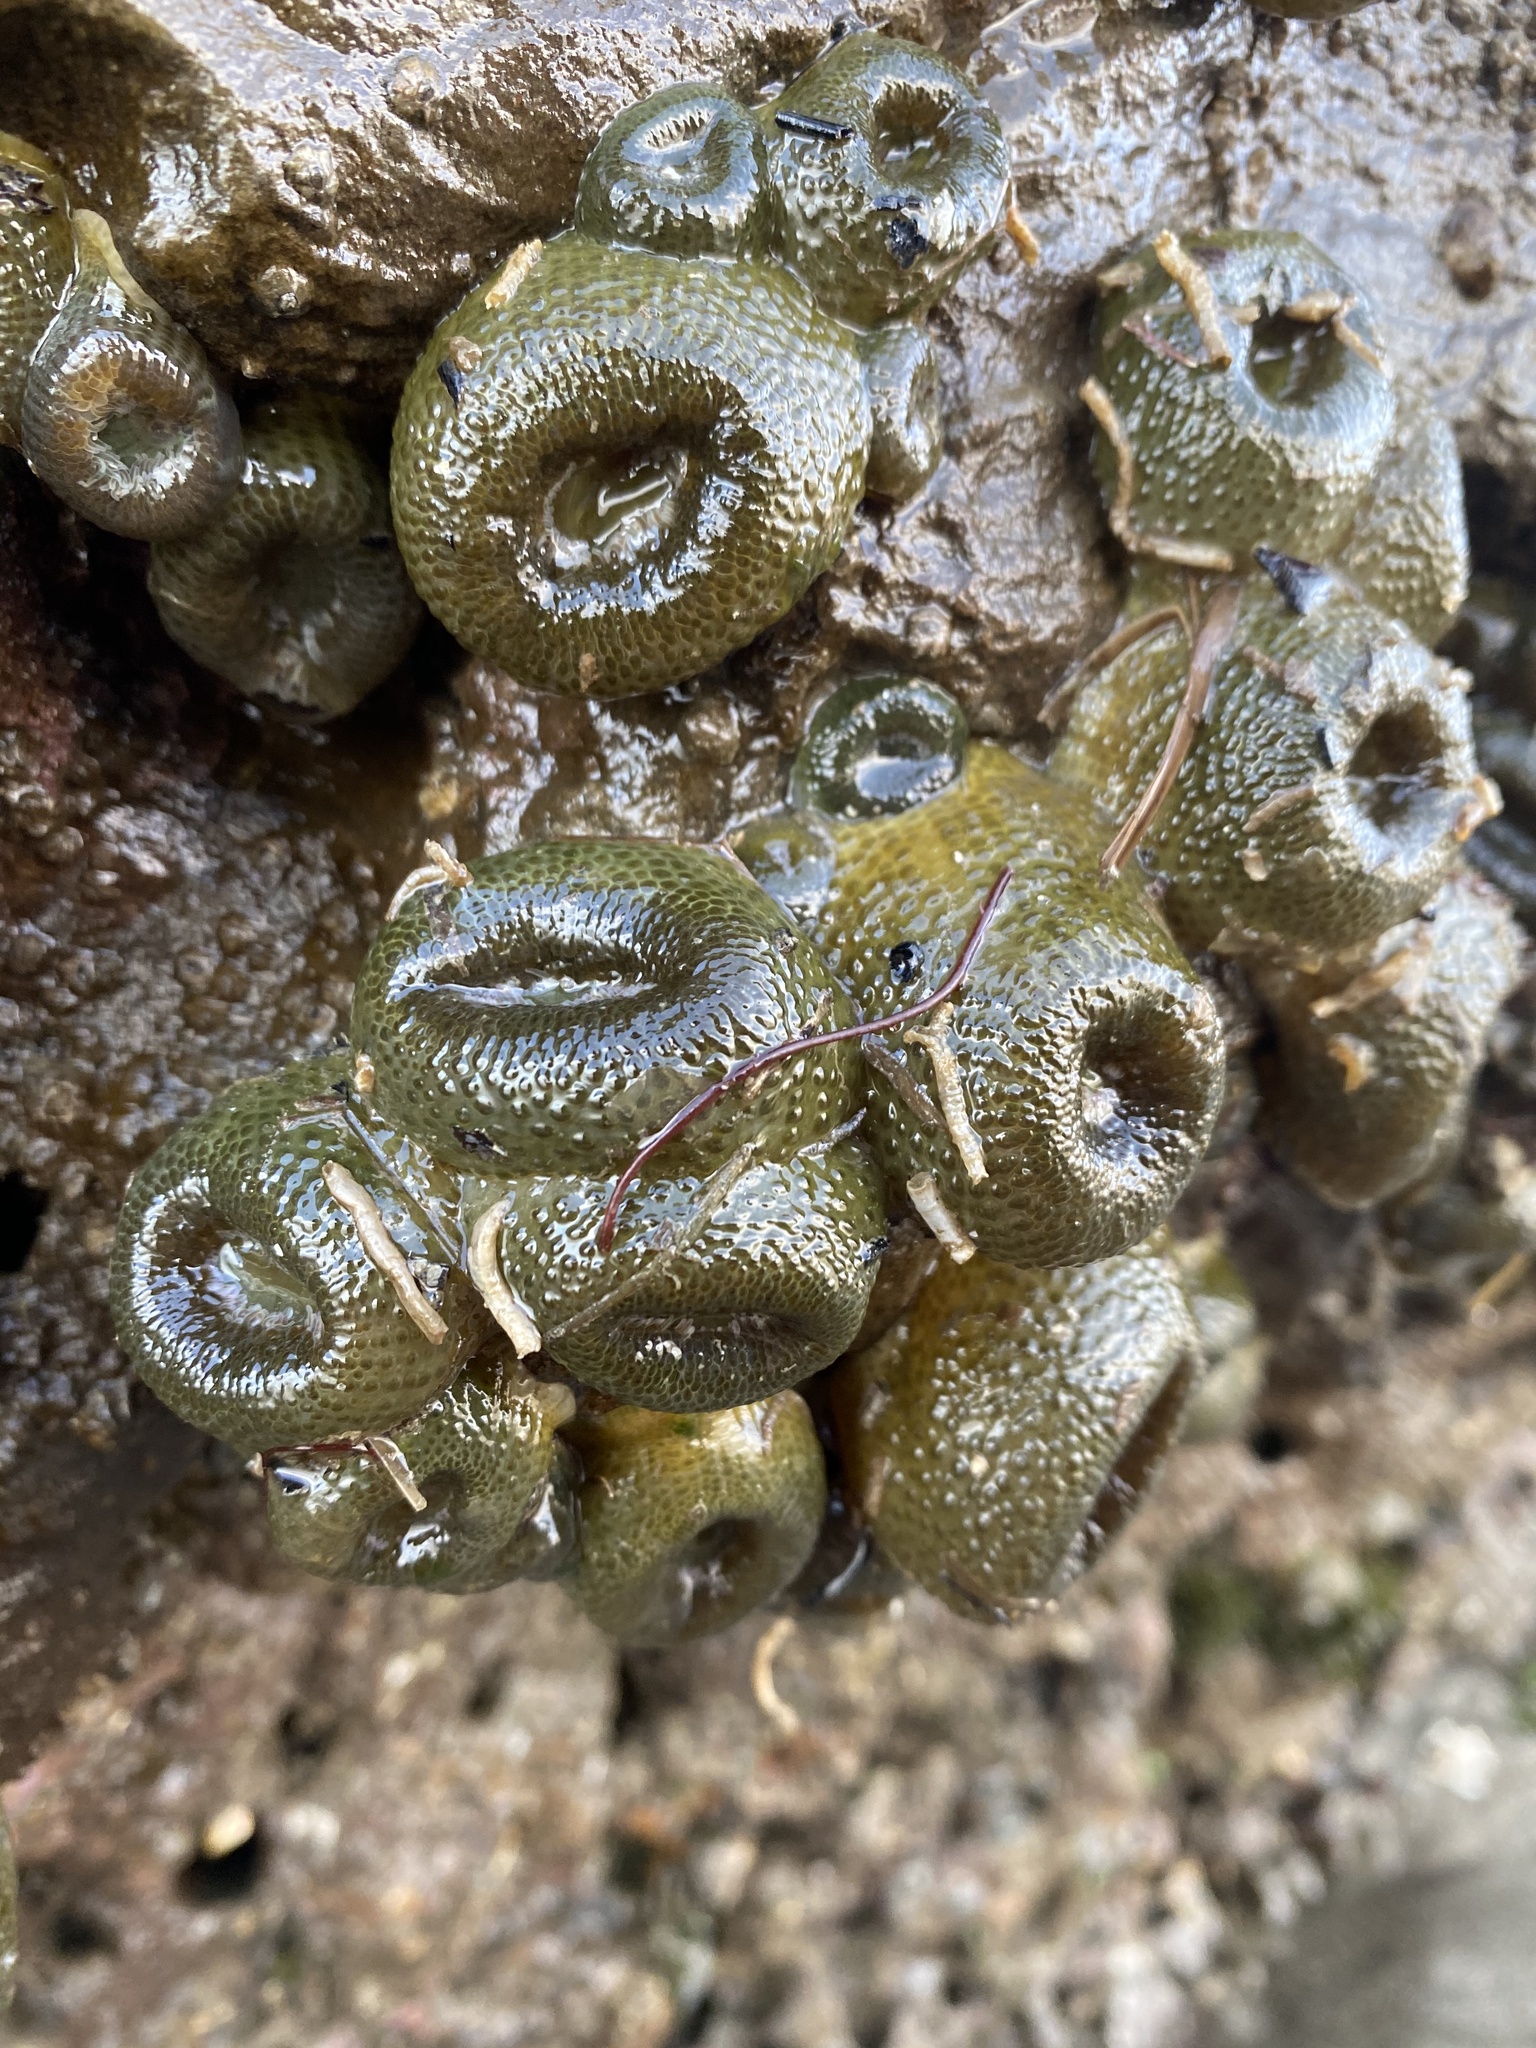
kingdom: Animalia
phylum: Cnidaria
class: Anthozoa
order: Actiniaria
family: Actiniidae
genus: Anthopleura
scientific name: Anthopleura elegantissima
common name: Clonal anemone
